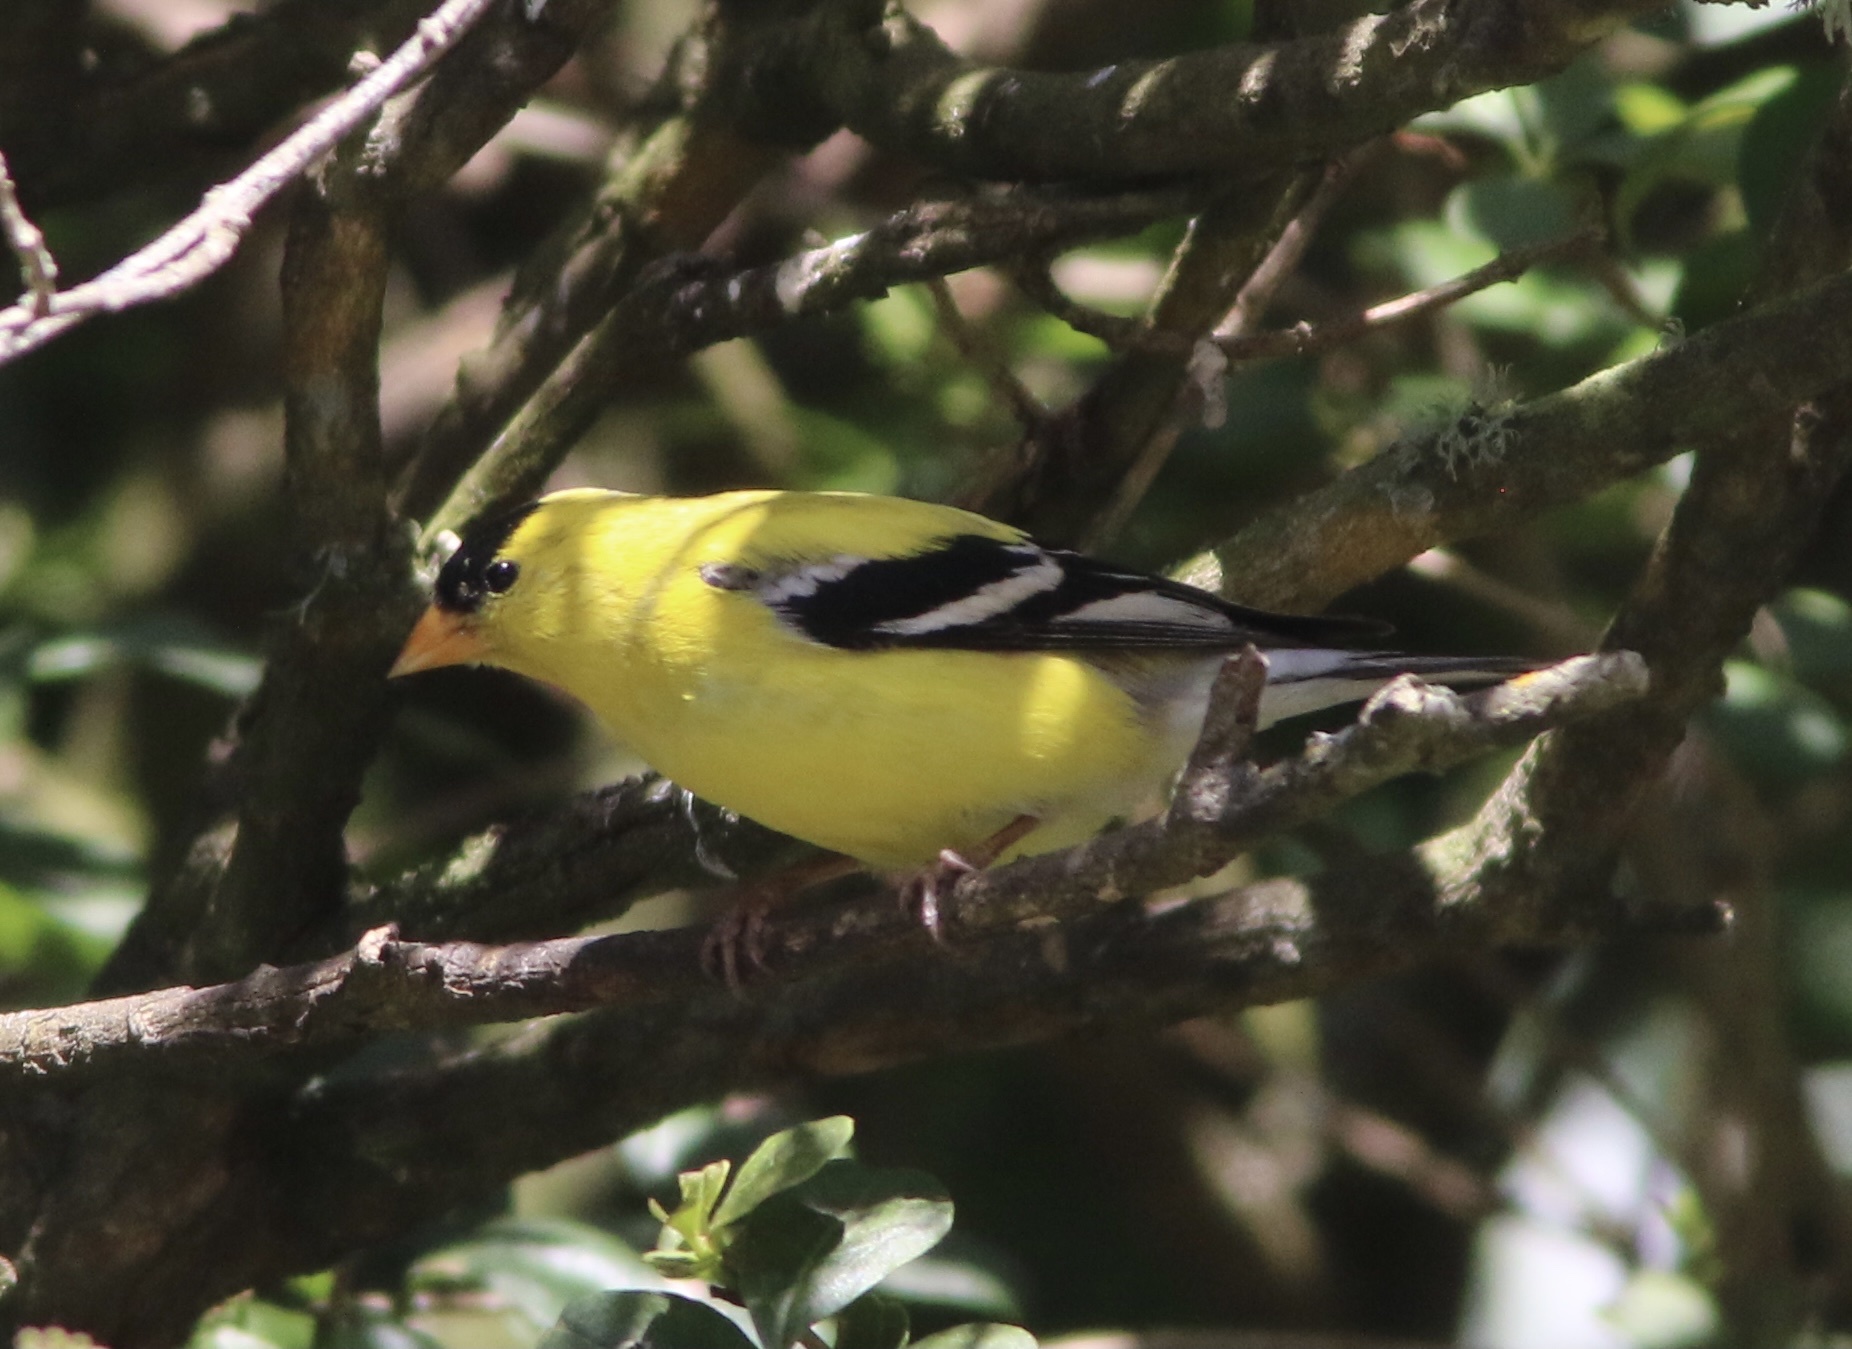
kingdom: Animalia
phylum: Chordata
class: Aves
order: Passeriformes
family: Fringillidae
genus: Spinus
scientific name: Spinus tristis
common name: American goldfinch
